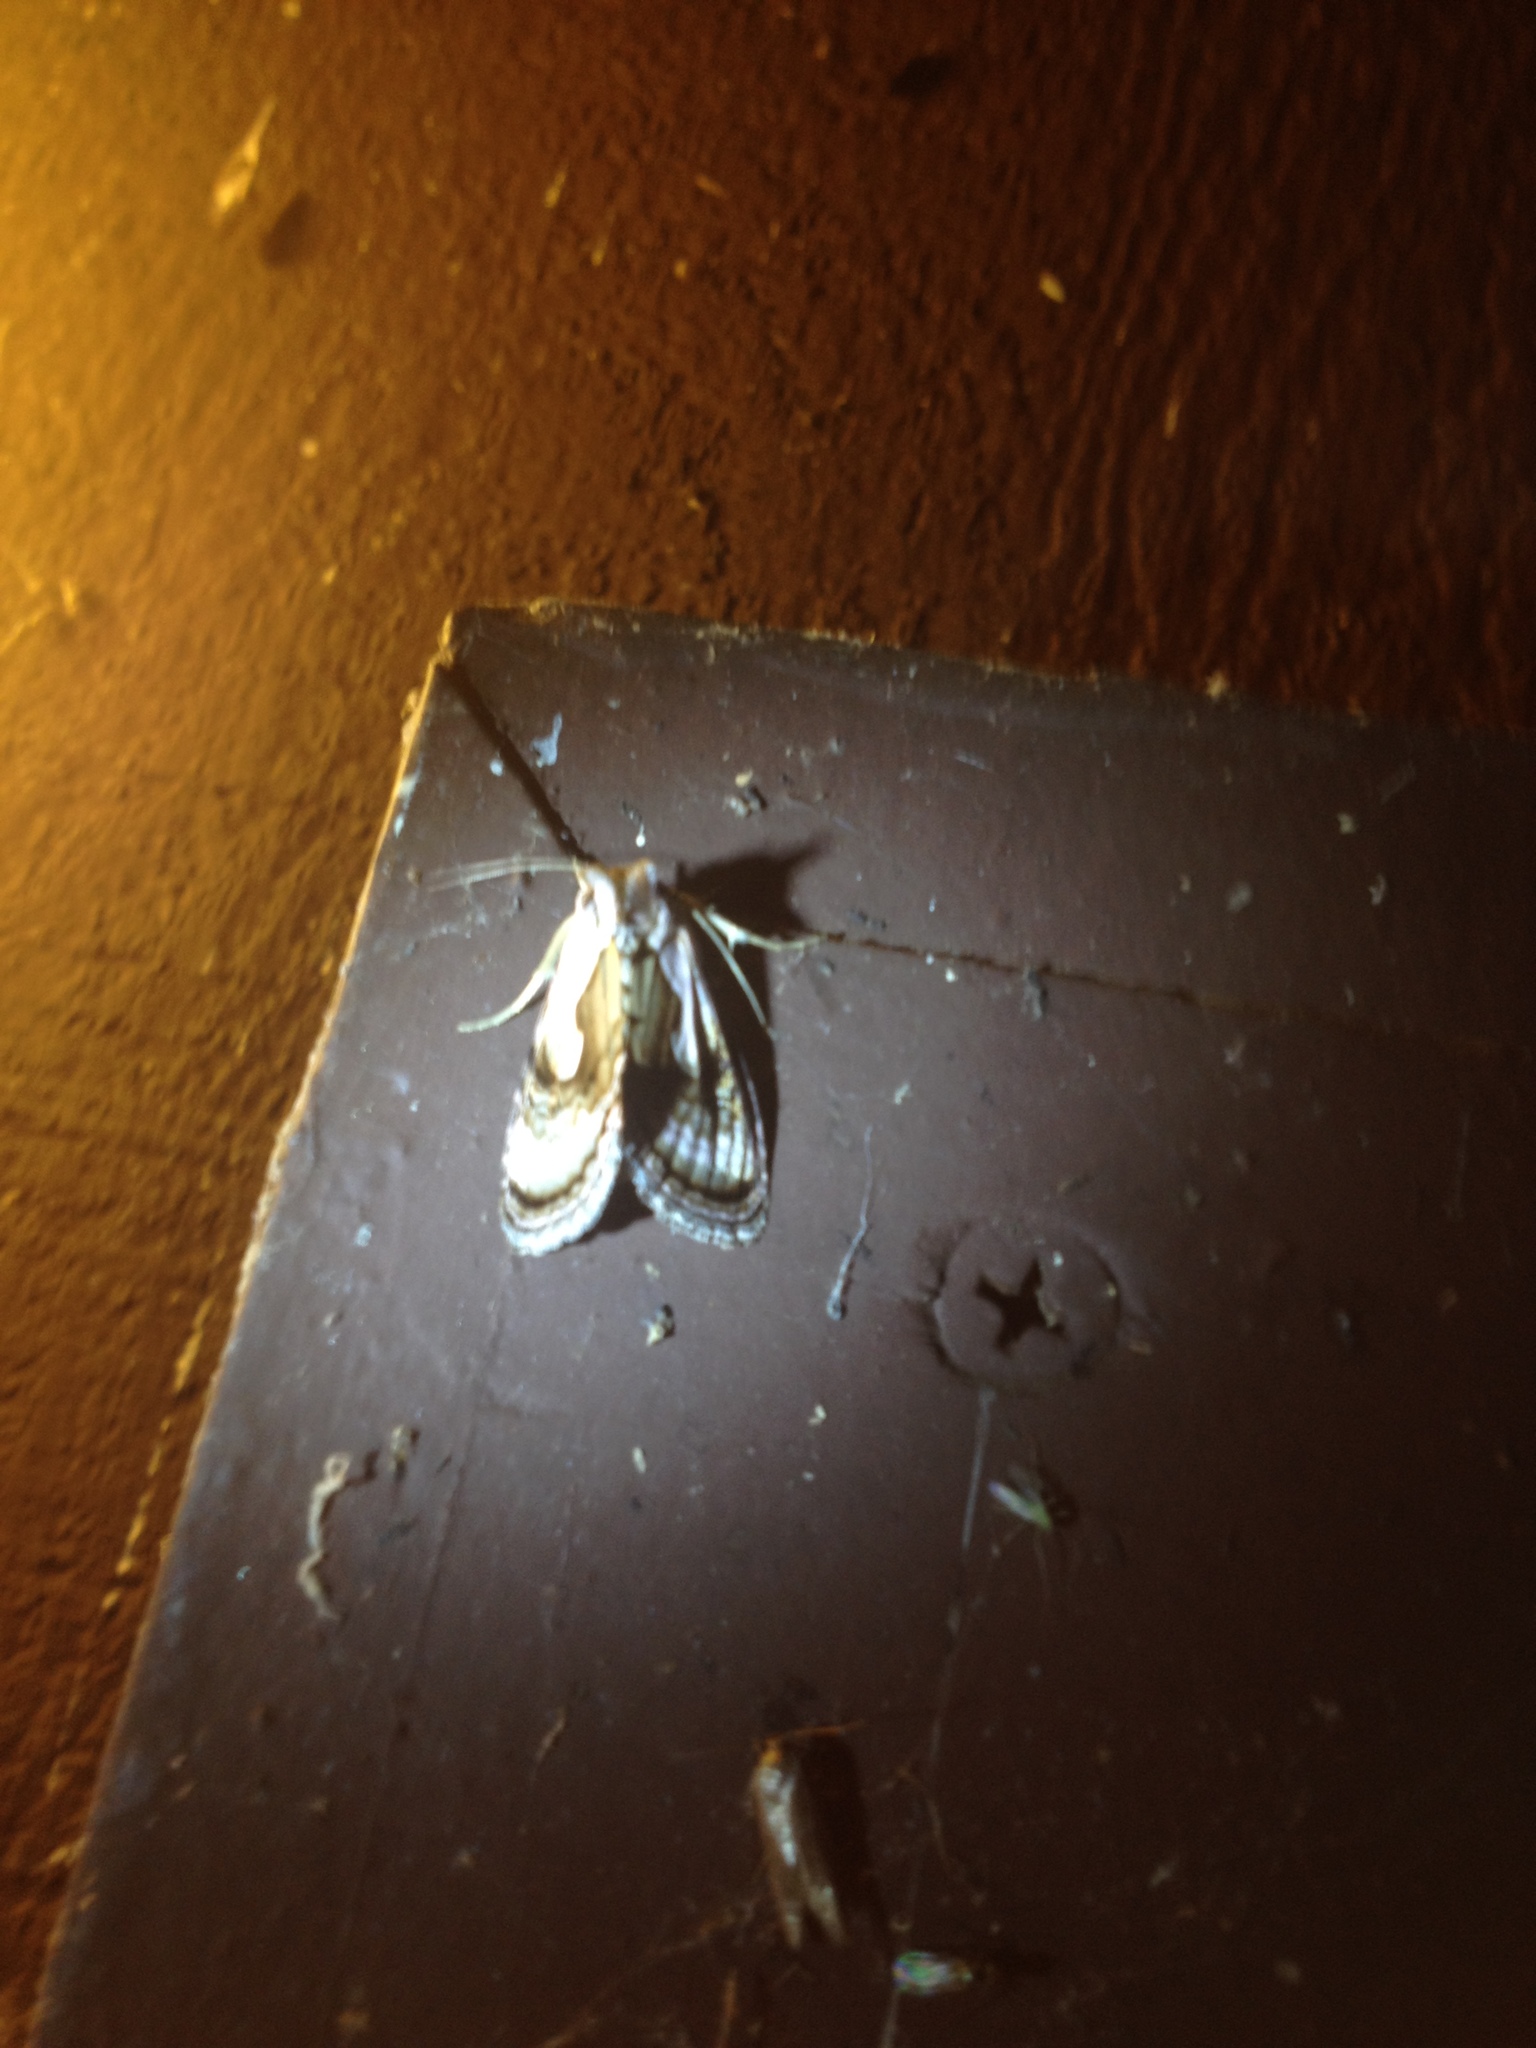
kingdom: Animalia
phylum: Arthropoda
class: Insecta
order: Lepidoptera
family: Noctuidae
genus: Chrysanympha
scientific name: Chrysanympha formosa
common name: Formosa looper moth
